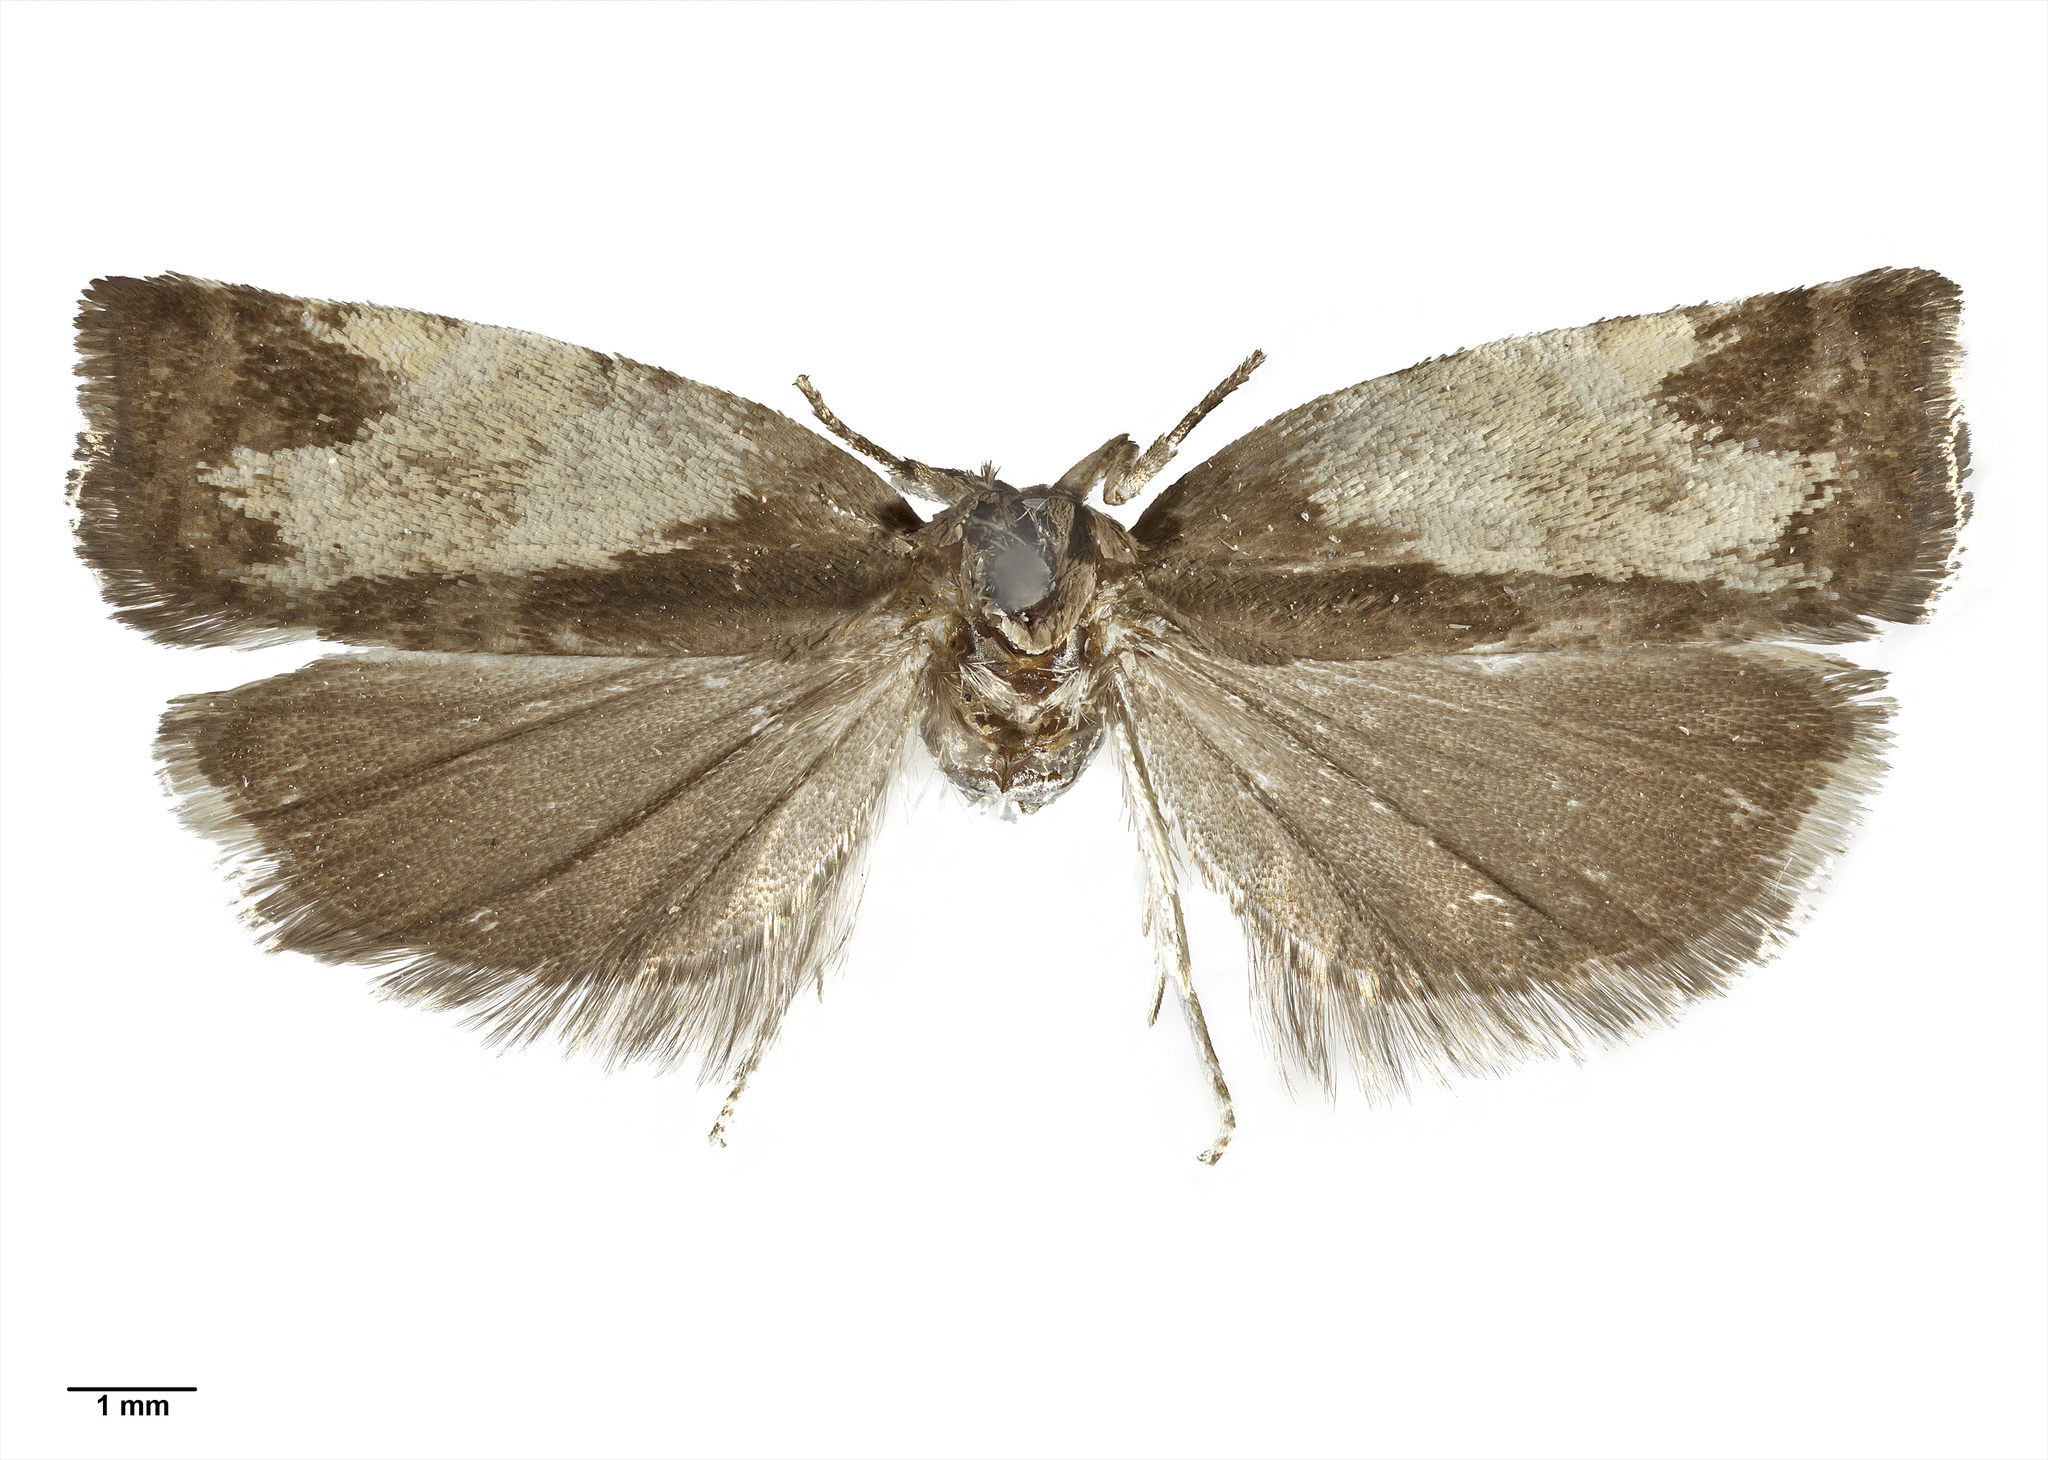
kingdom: Animalia
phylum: Arthropoda
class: Insecta
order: Lepidoptera
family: Tortricidae
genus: Epichorista
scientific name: Epichorista emphanes
